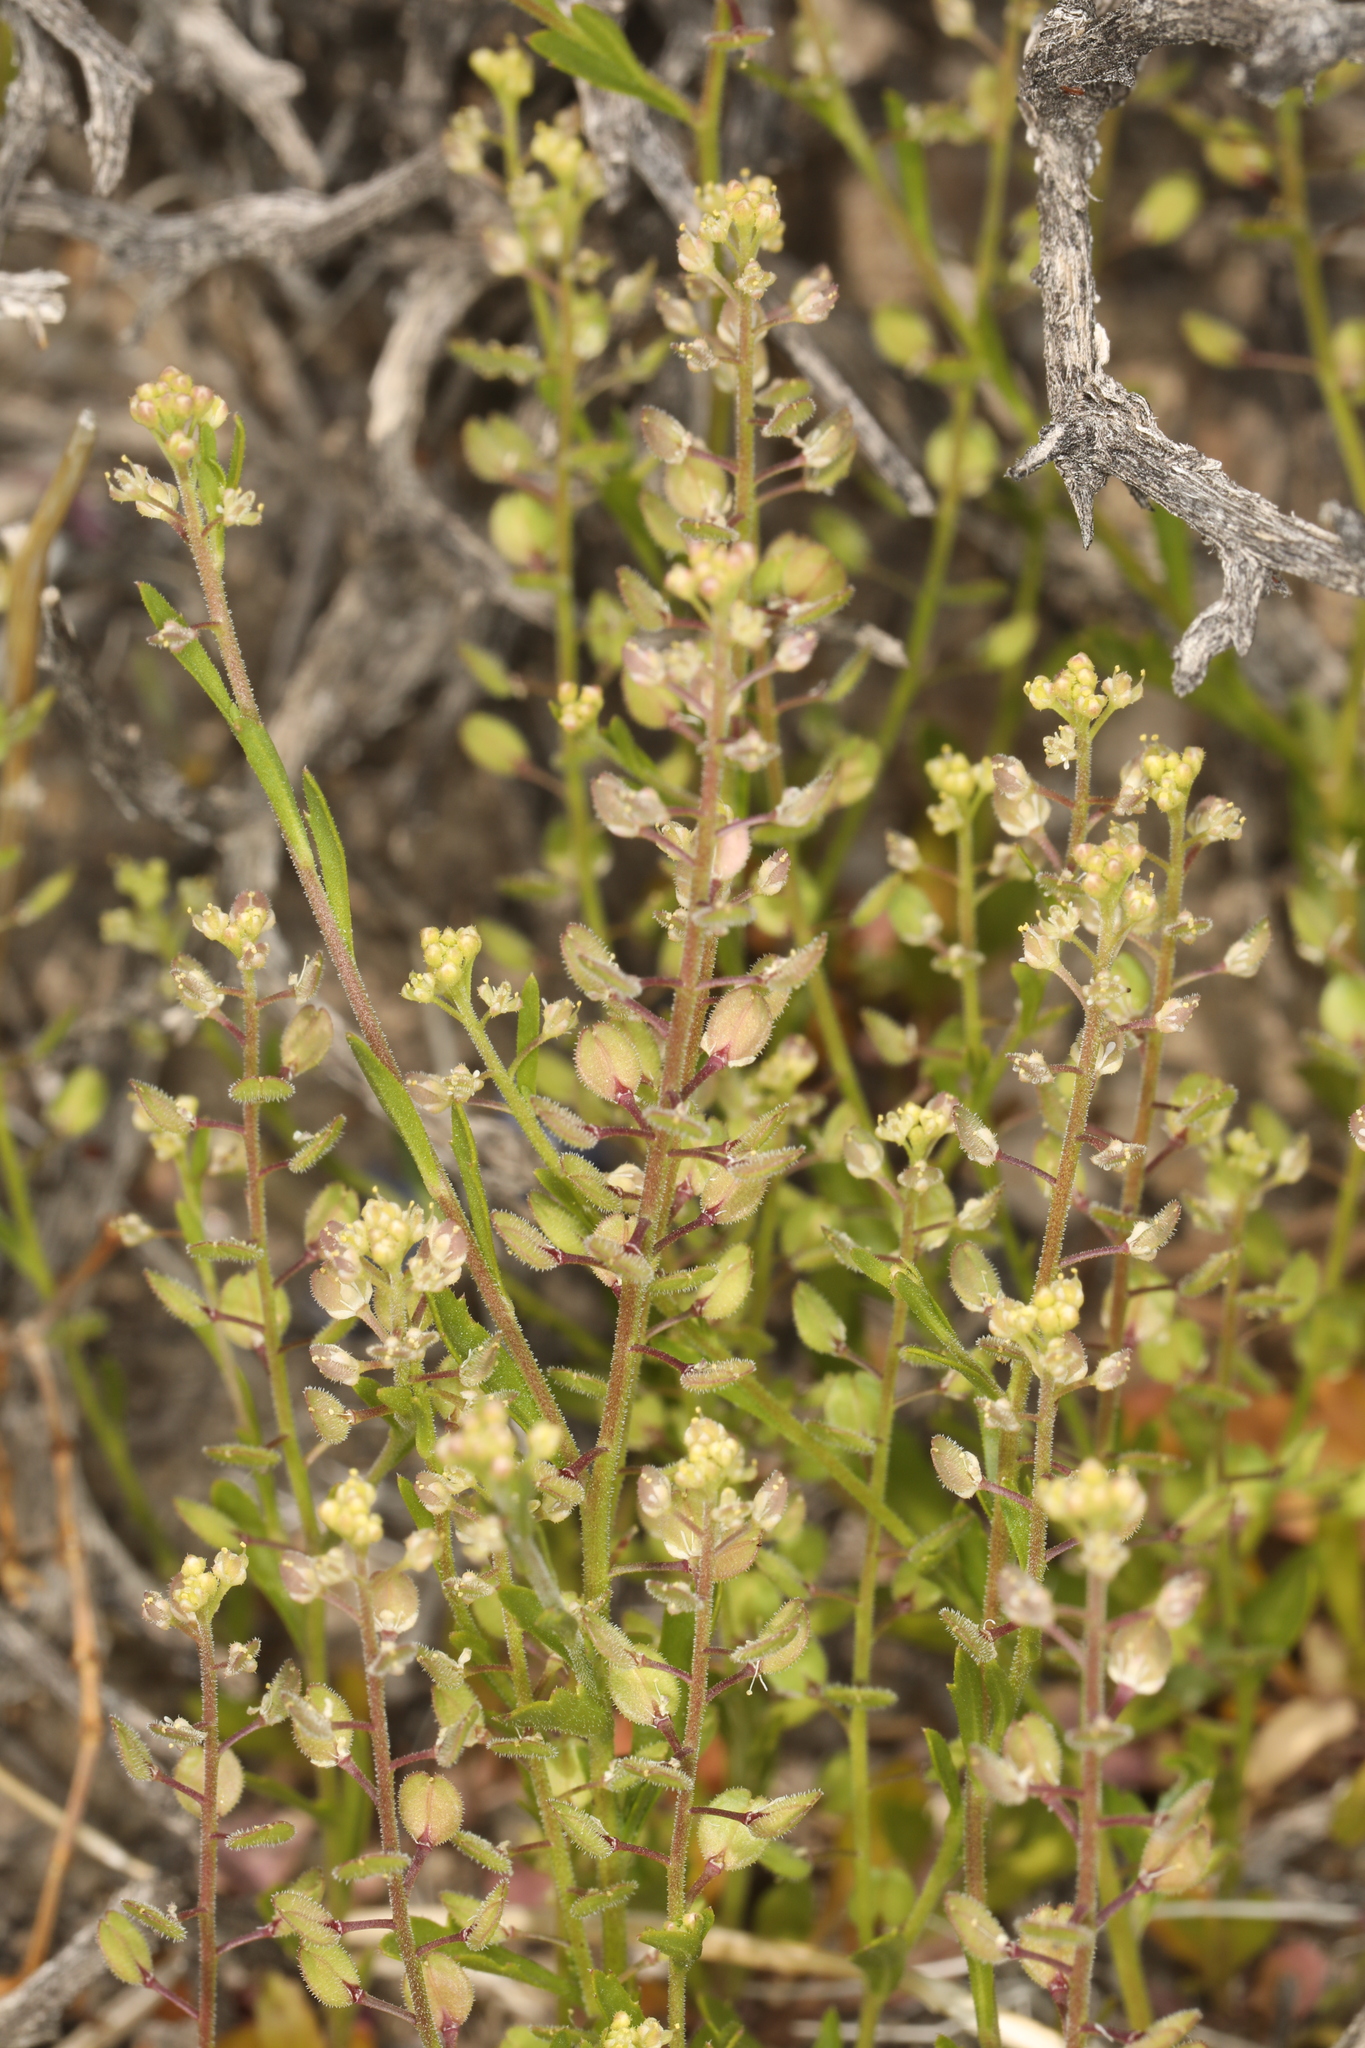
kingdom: Plantae
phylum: Tracheophyta
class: Magnoliopsida
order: Brassicales
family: Brassicaceae
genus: Lepidium
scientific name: Lepidium lasiocarpum
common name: Hairy-pod pepperwort
